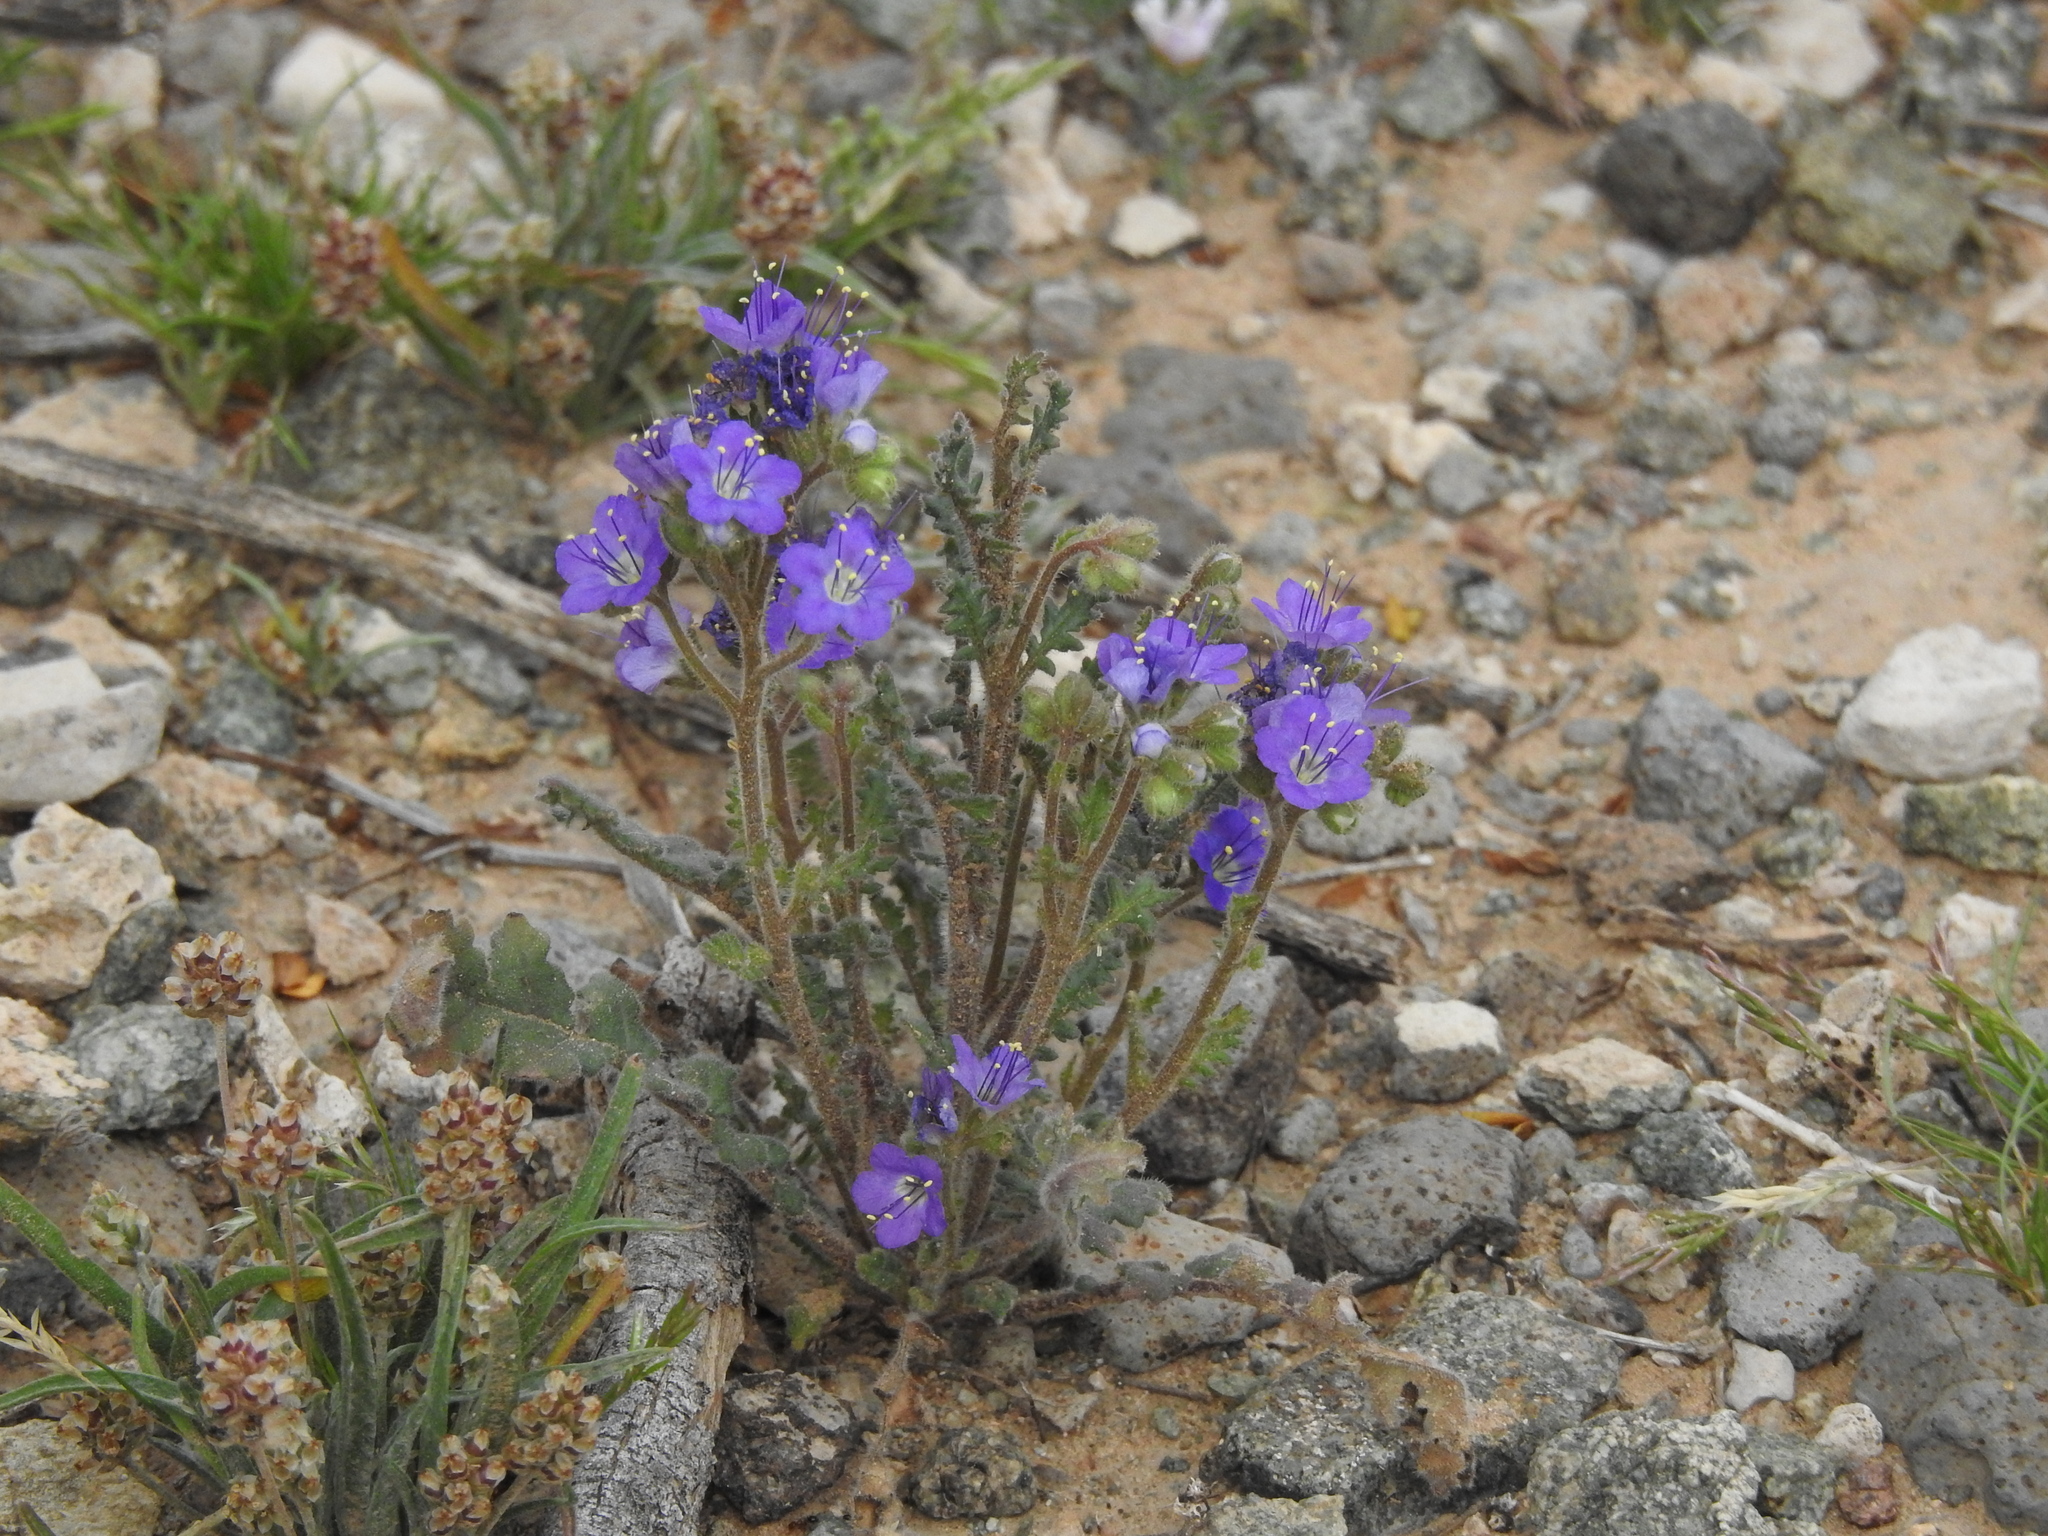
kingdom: Plantae
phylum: Tracheophyta
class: Magnoliopsida
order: Boraginales
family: Hydrophyllaceae
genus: Phacelia
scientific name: Phacelia crenulata
